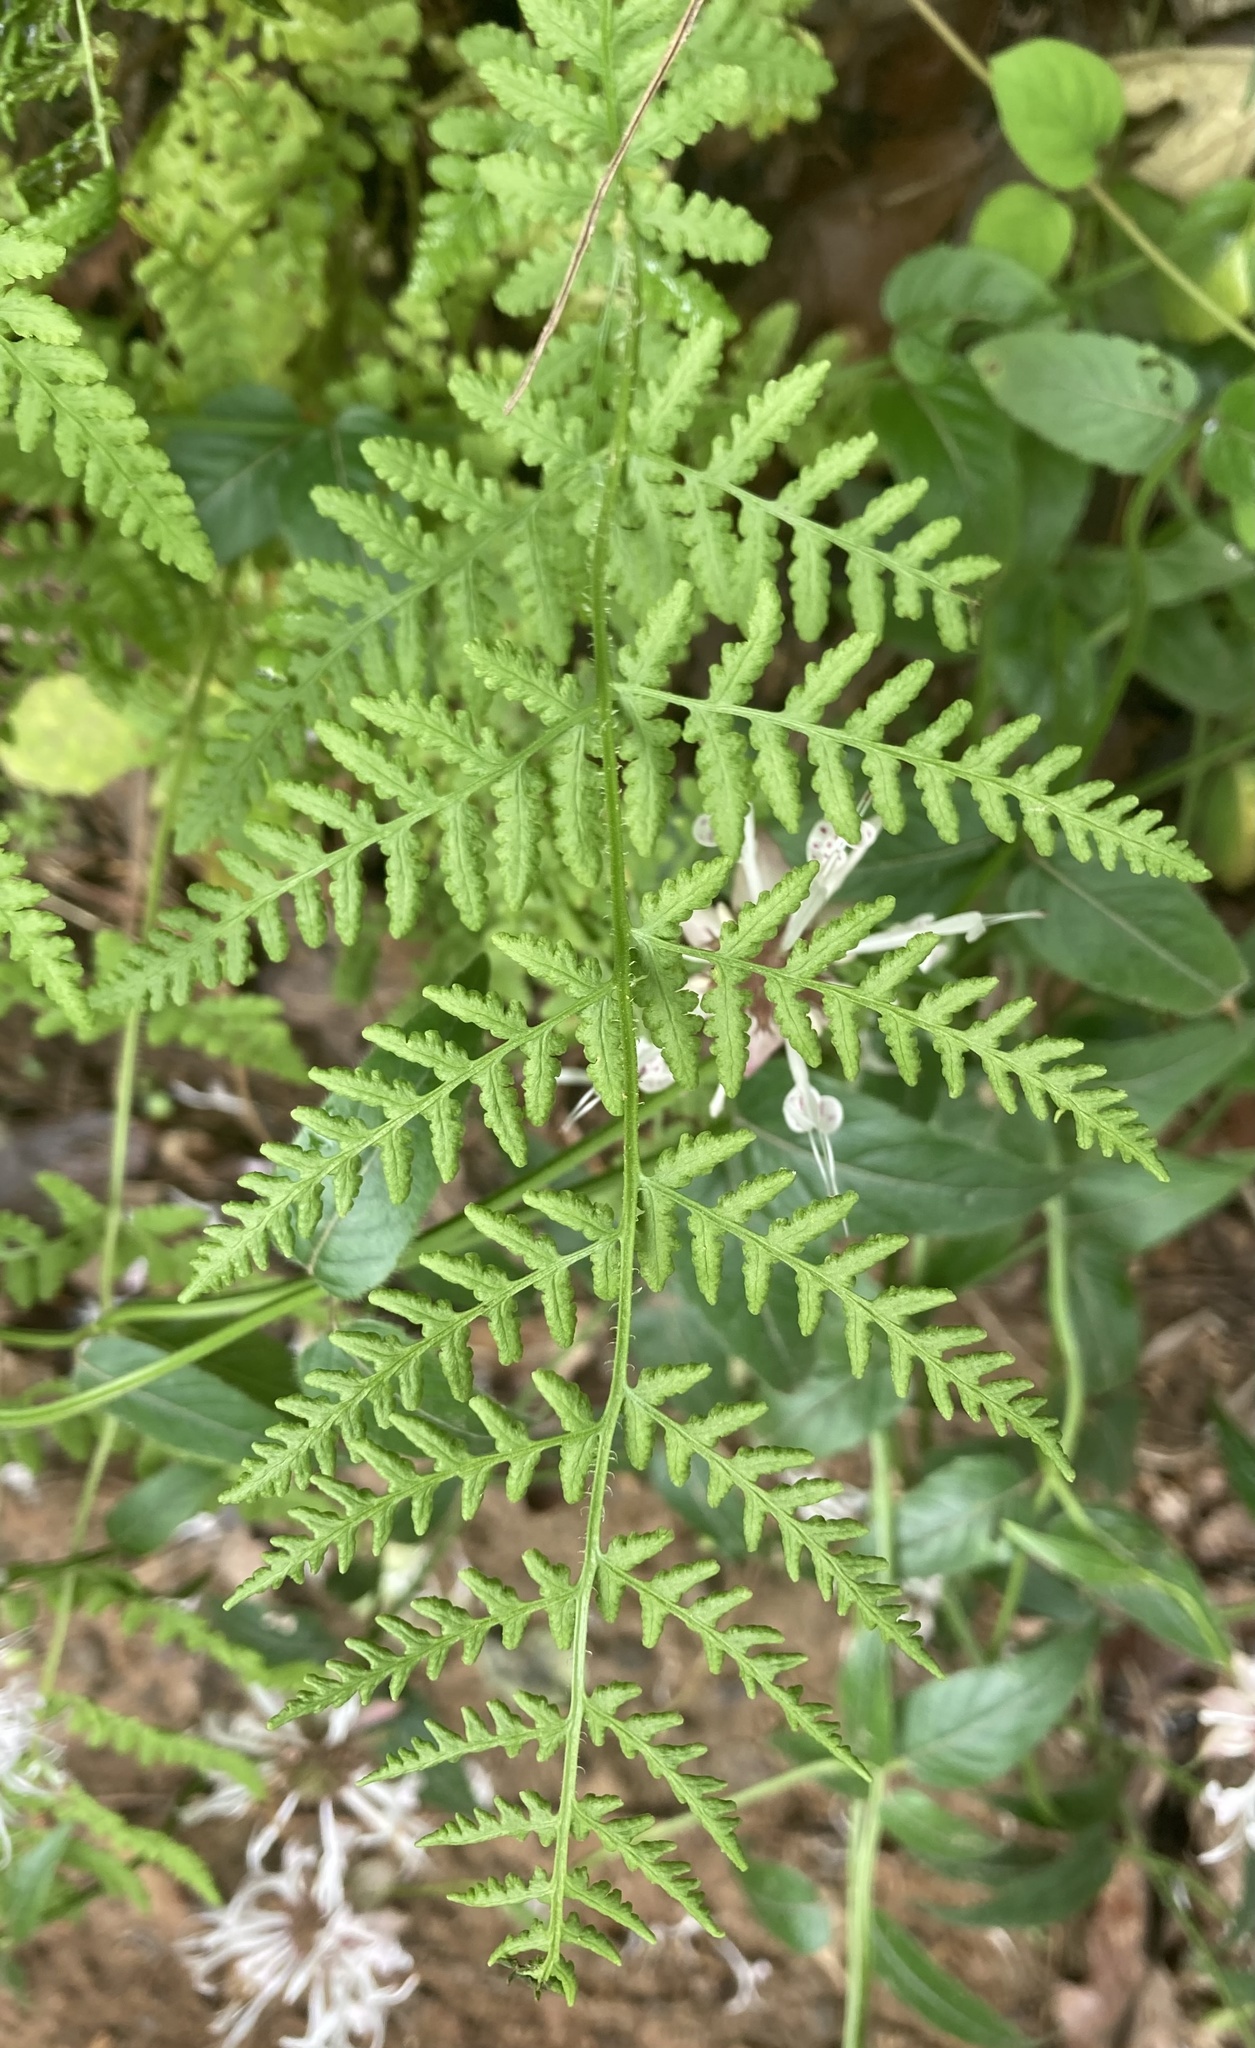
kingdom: Plantae
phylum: Tracheophyta
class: Polypodiopsida
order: Polypodiales
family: Woodsiaceae
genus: Physematium
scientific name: Physematium obtusum
